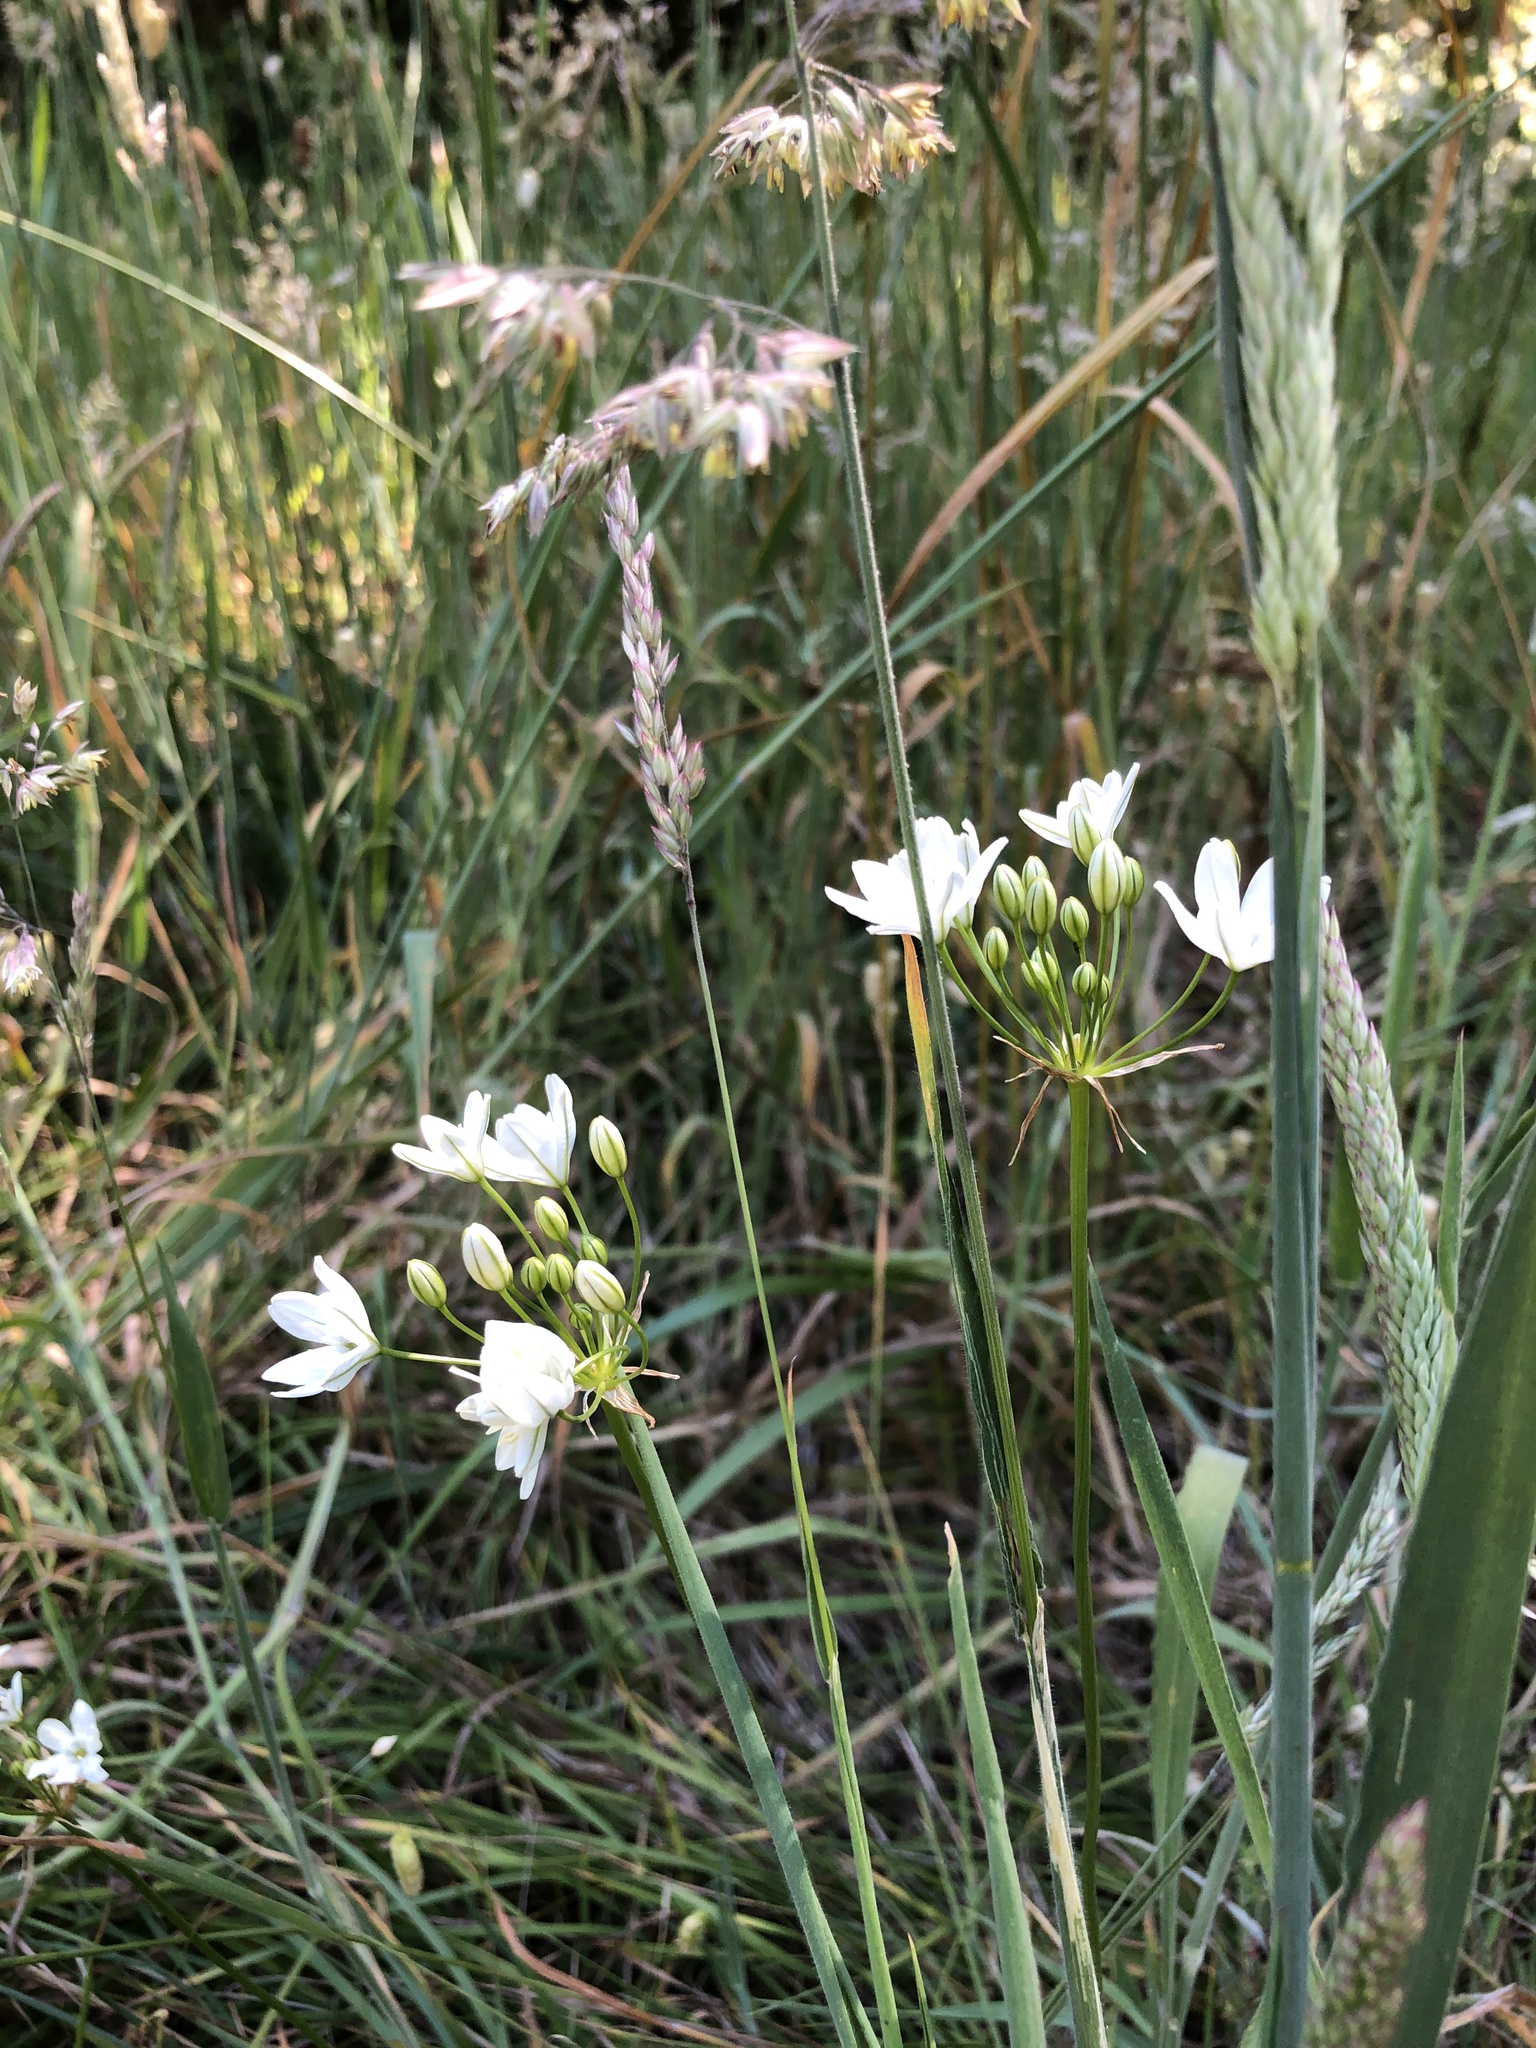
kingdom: Plantae
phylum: Tracheophyta
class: Liliopsida
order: Asparagales
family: Asparagaceae
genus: Triteleia
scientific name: Triteleia hyacinthina
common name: White brodiaea
